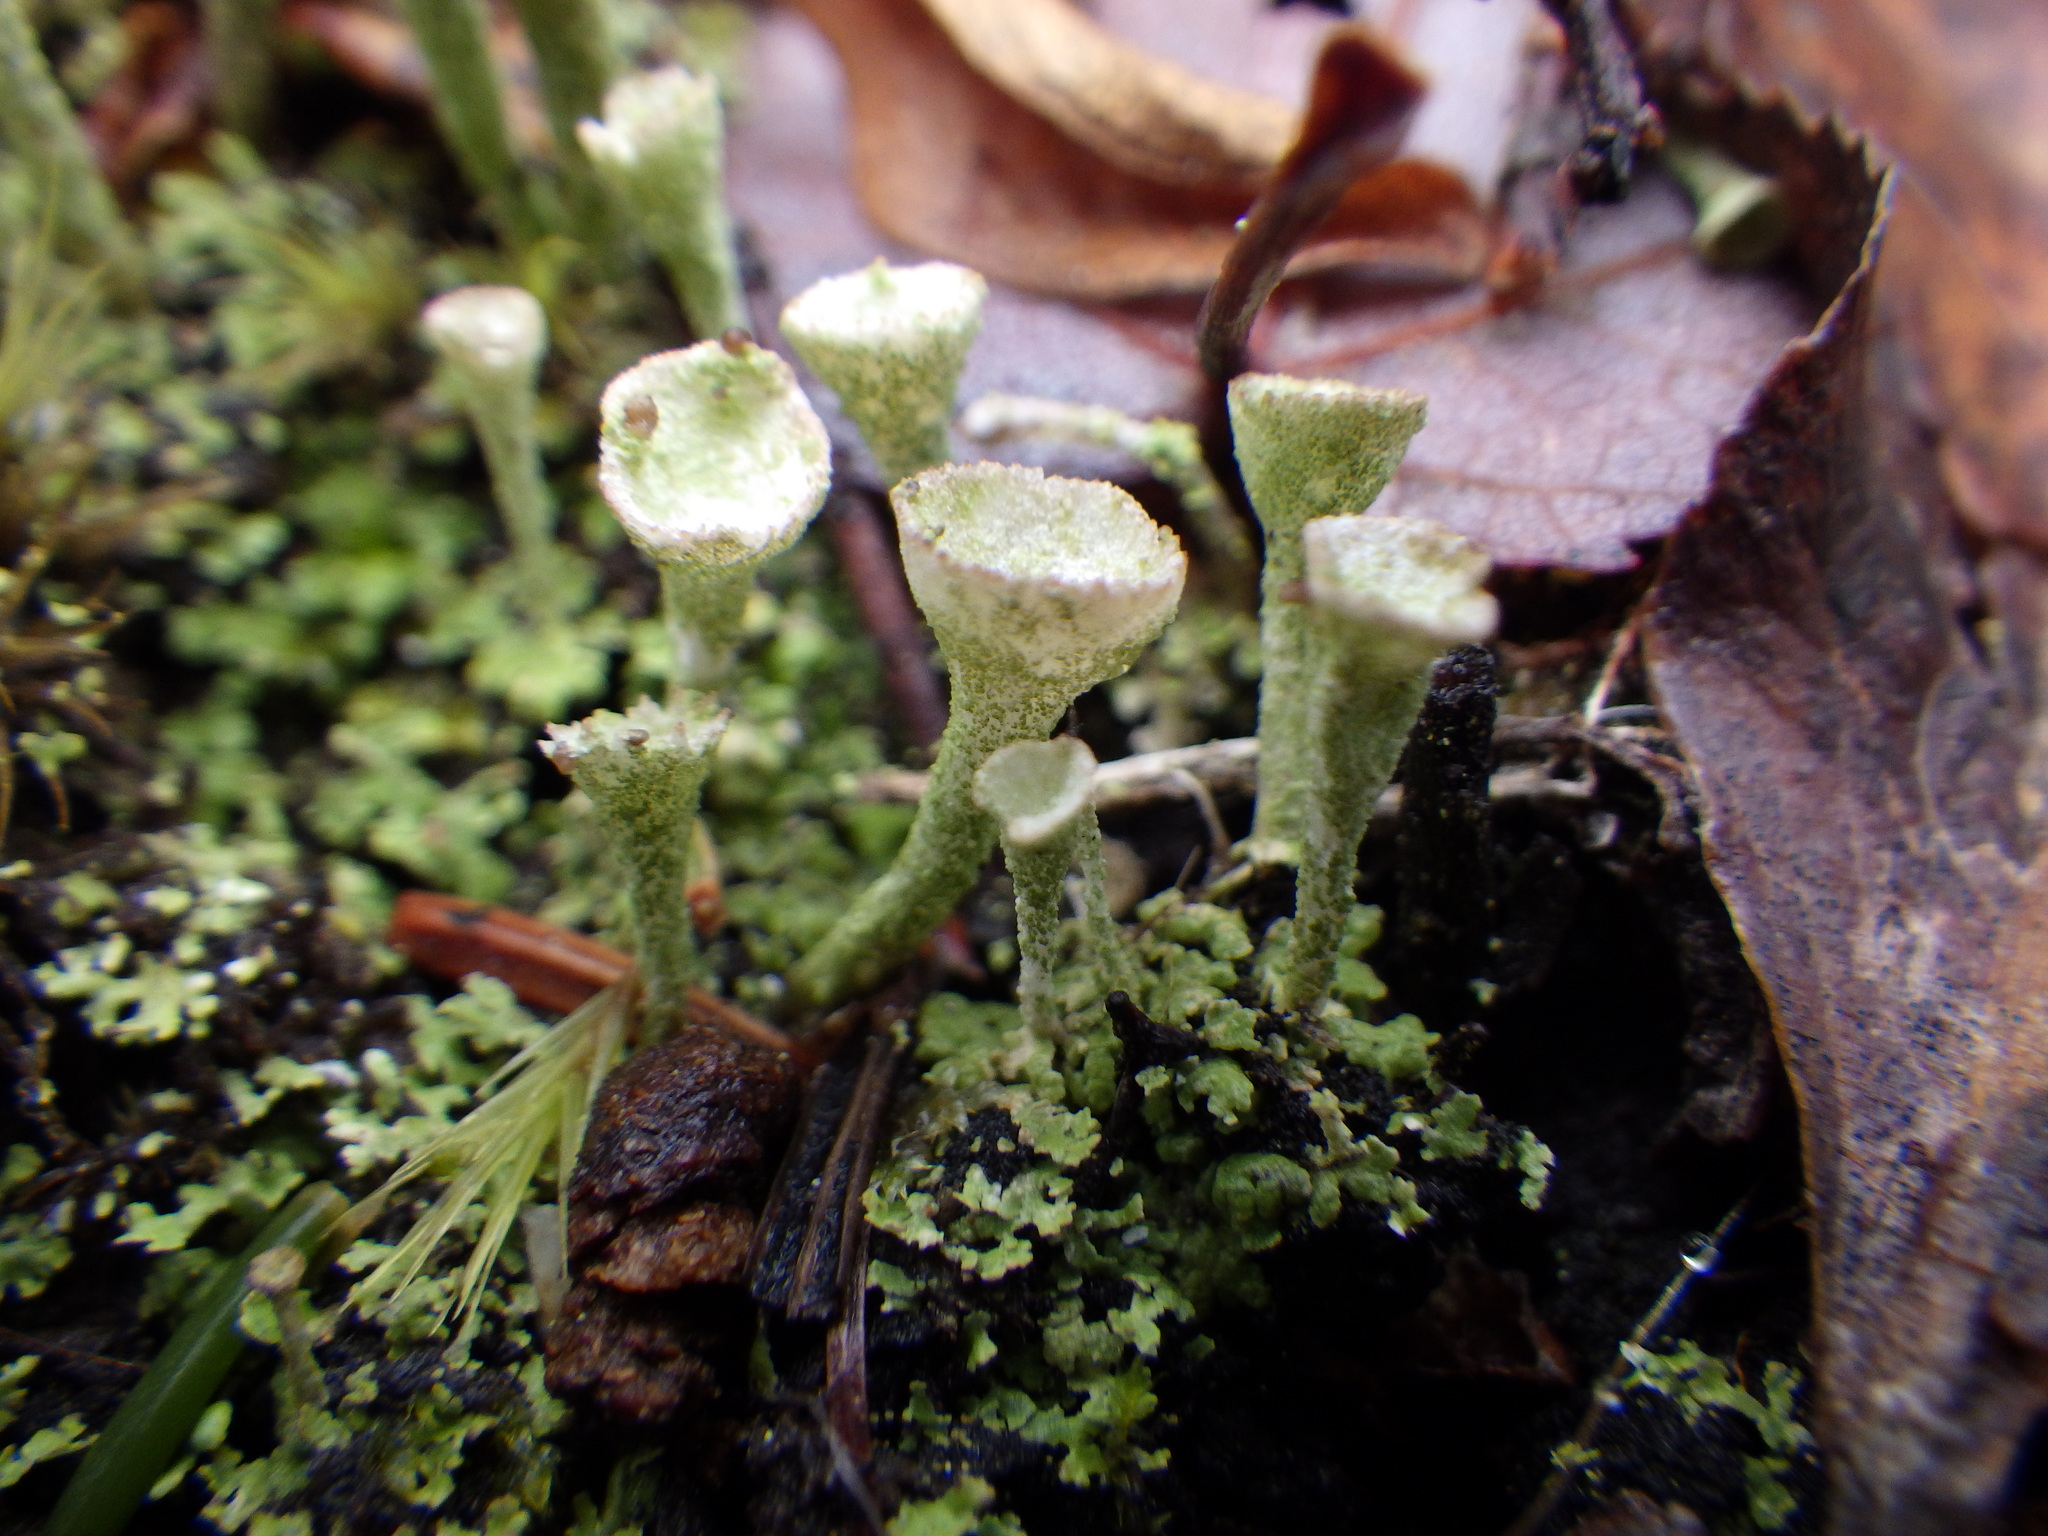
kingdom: Fungi
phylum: Ascomycota
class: Lecanoromycetes
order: Lecanorales
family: Cladoniaceae
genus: Cladonia
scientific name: Cladonia fimbriata
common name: Powdered trumpet lichen
